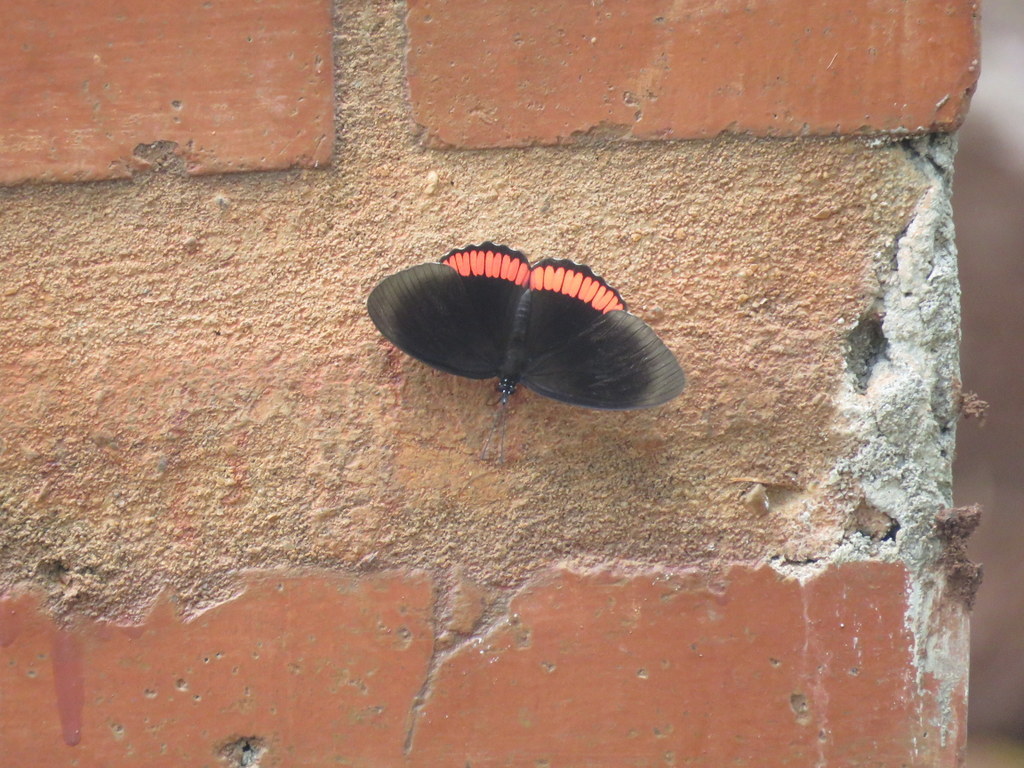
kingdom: Animalia
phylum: Arthropoda
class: Insecta
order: Lepidoptera
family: Sesiidae
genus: Sesia
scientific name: Sesia Biblis hyperia
